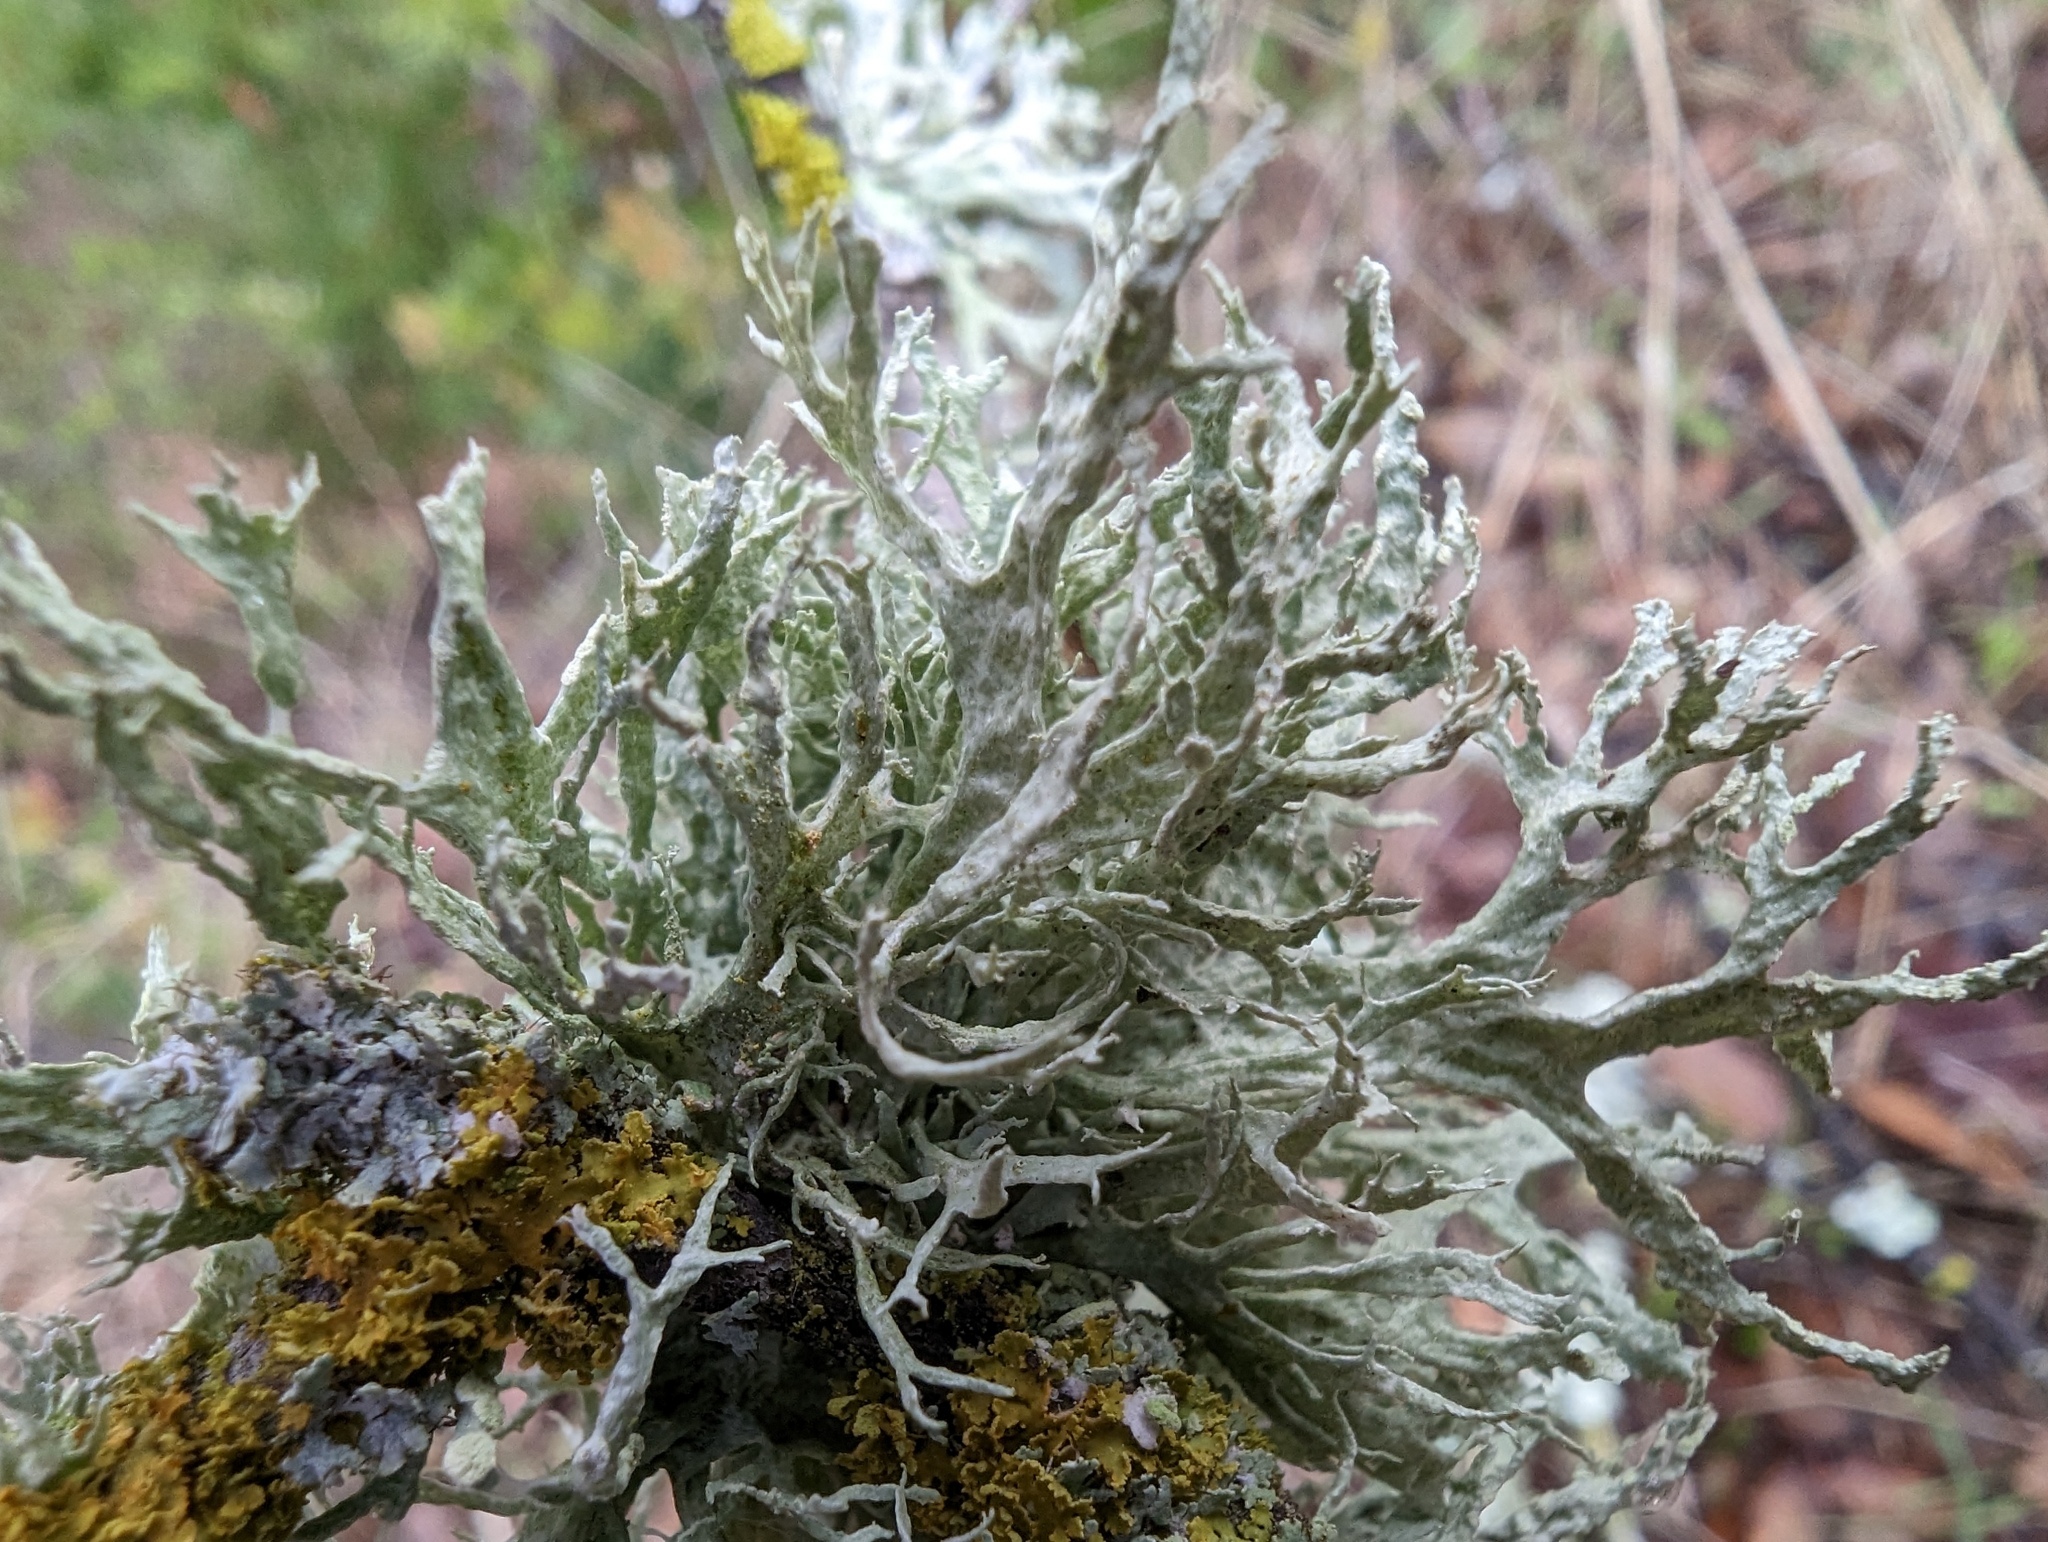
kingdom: Fungi
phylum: Ascomycota
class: Lecanoromycetes
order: Lecanorales
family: Parmeliaceae
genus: Evernia
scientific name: Evernia prunastri
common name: Oak moss
